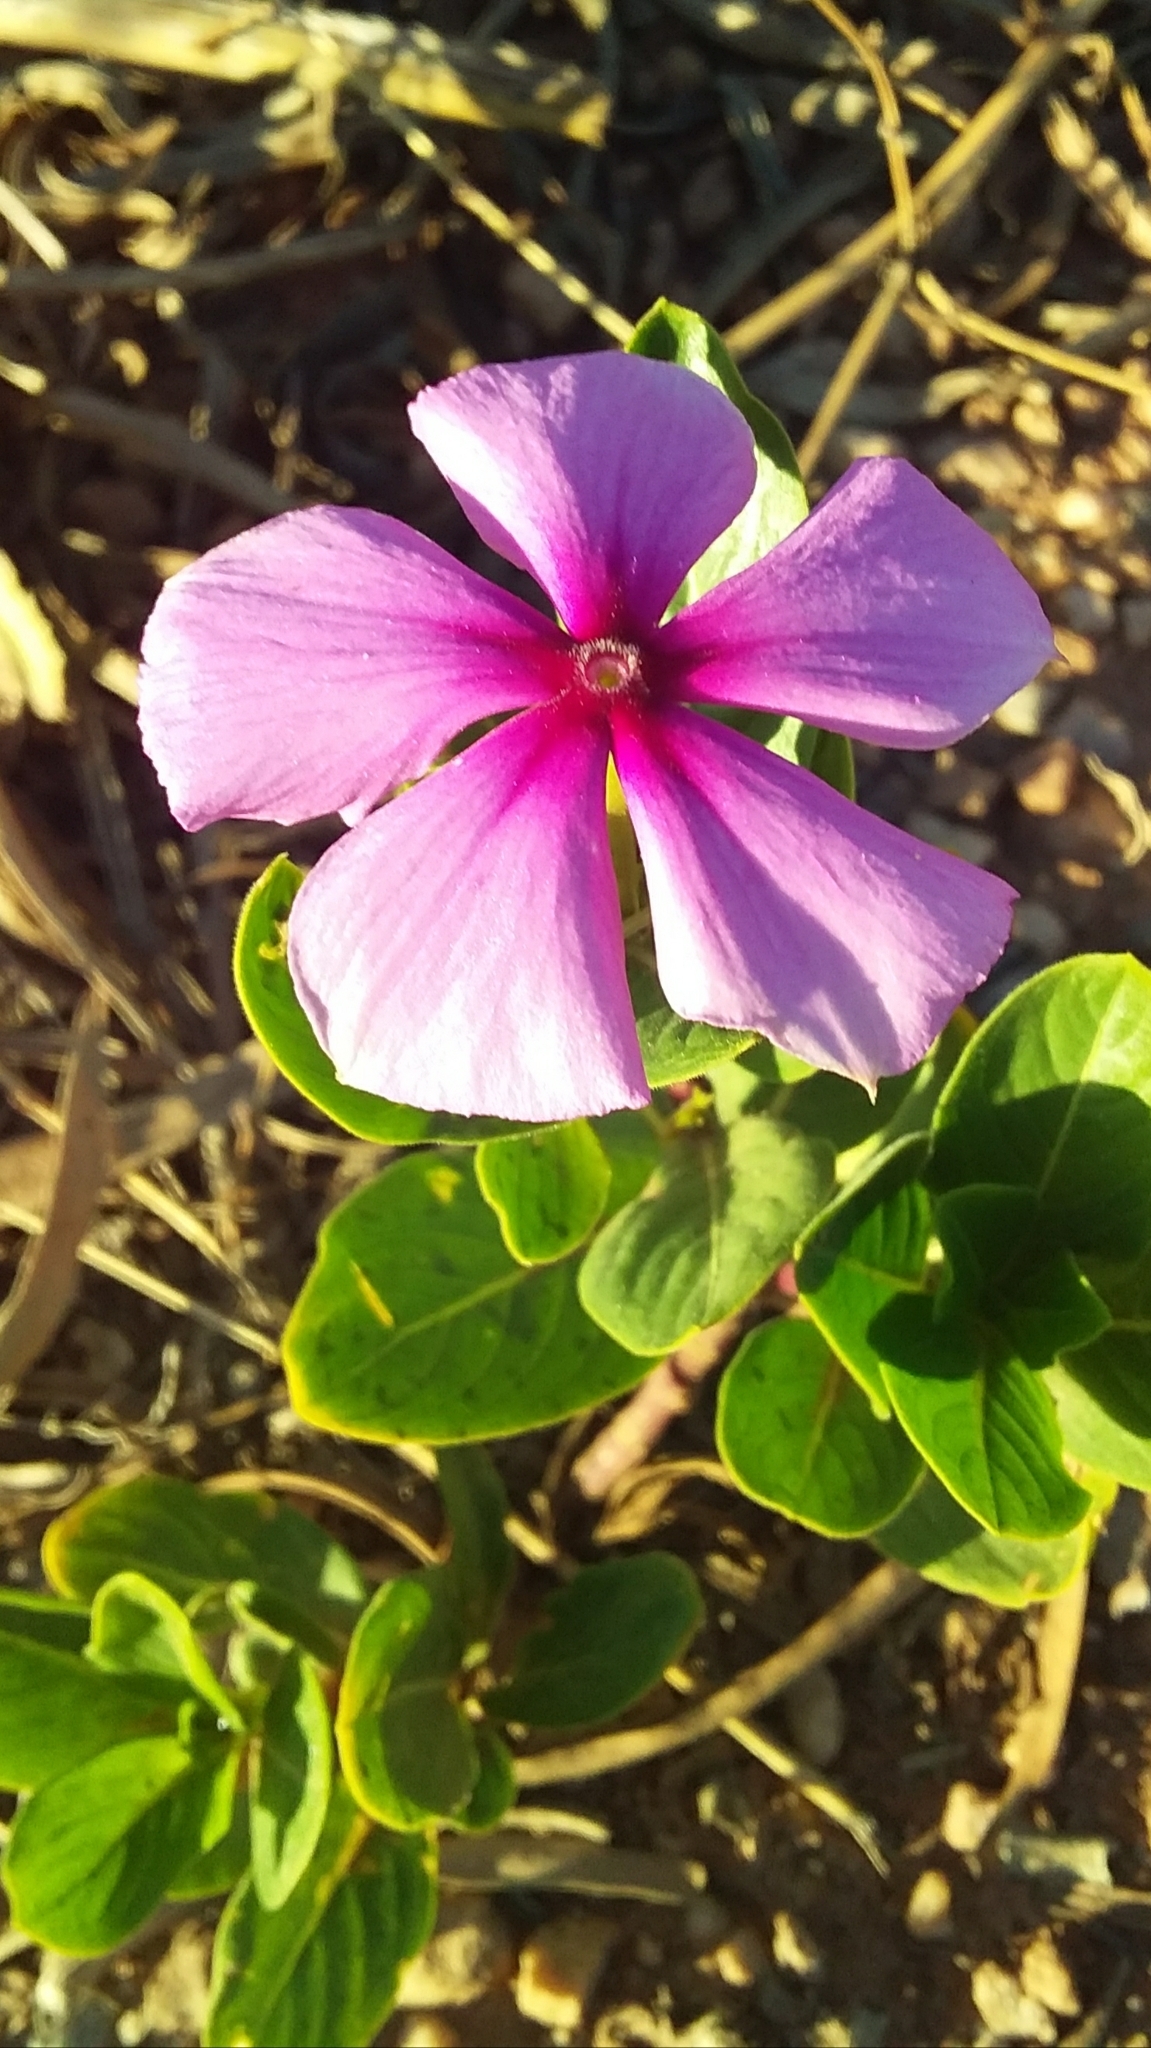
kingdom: Plantae
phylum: Tracheophyta
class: Magnoliopsida
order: Gentianales
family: Apocynaceae
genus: Catharanthus
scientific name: Catharanthus roseus
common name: Madagascar periwinkle
